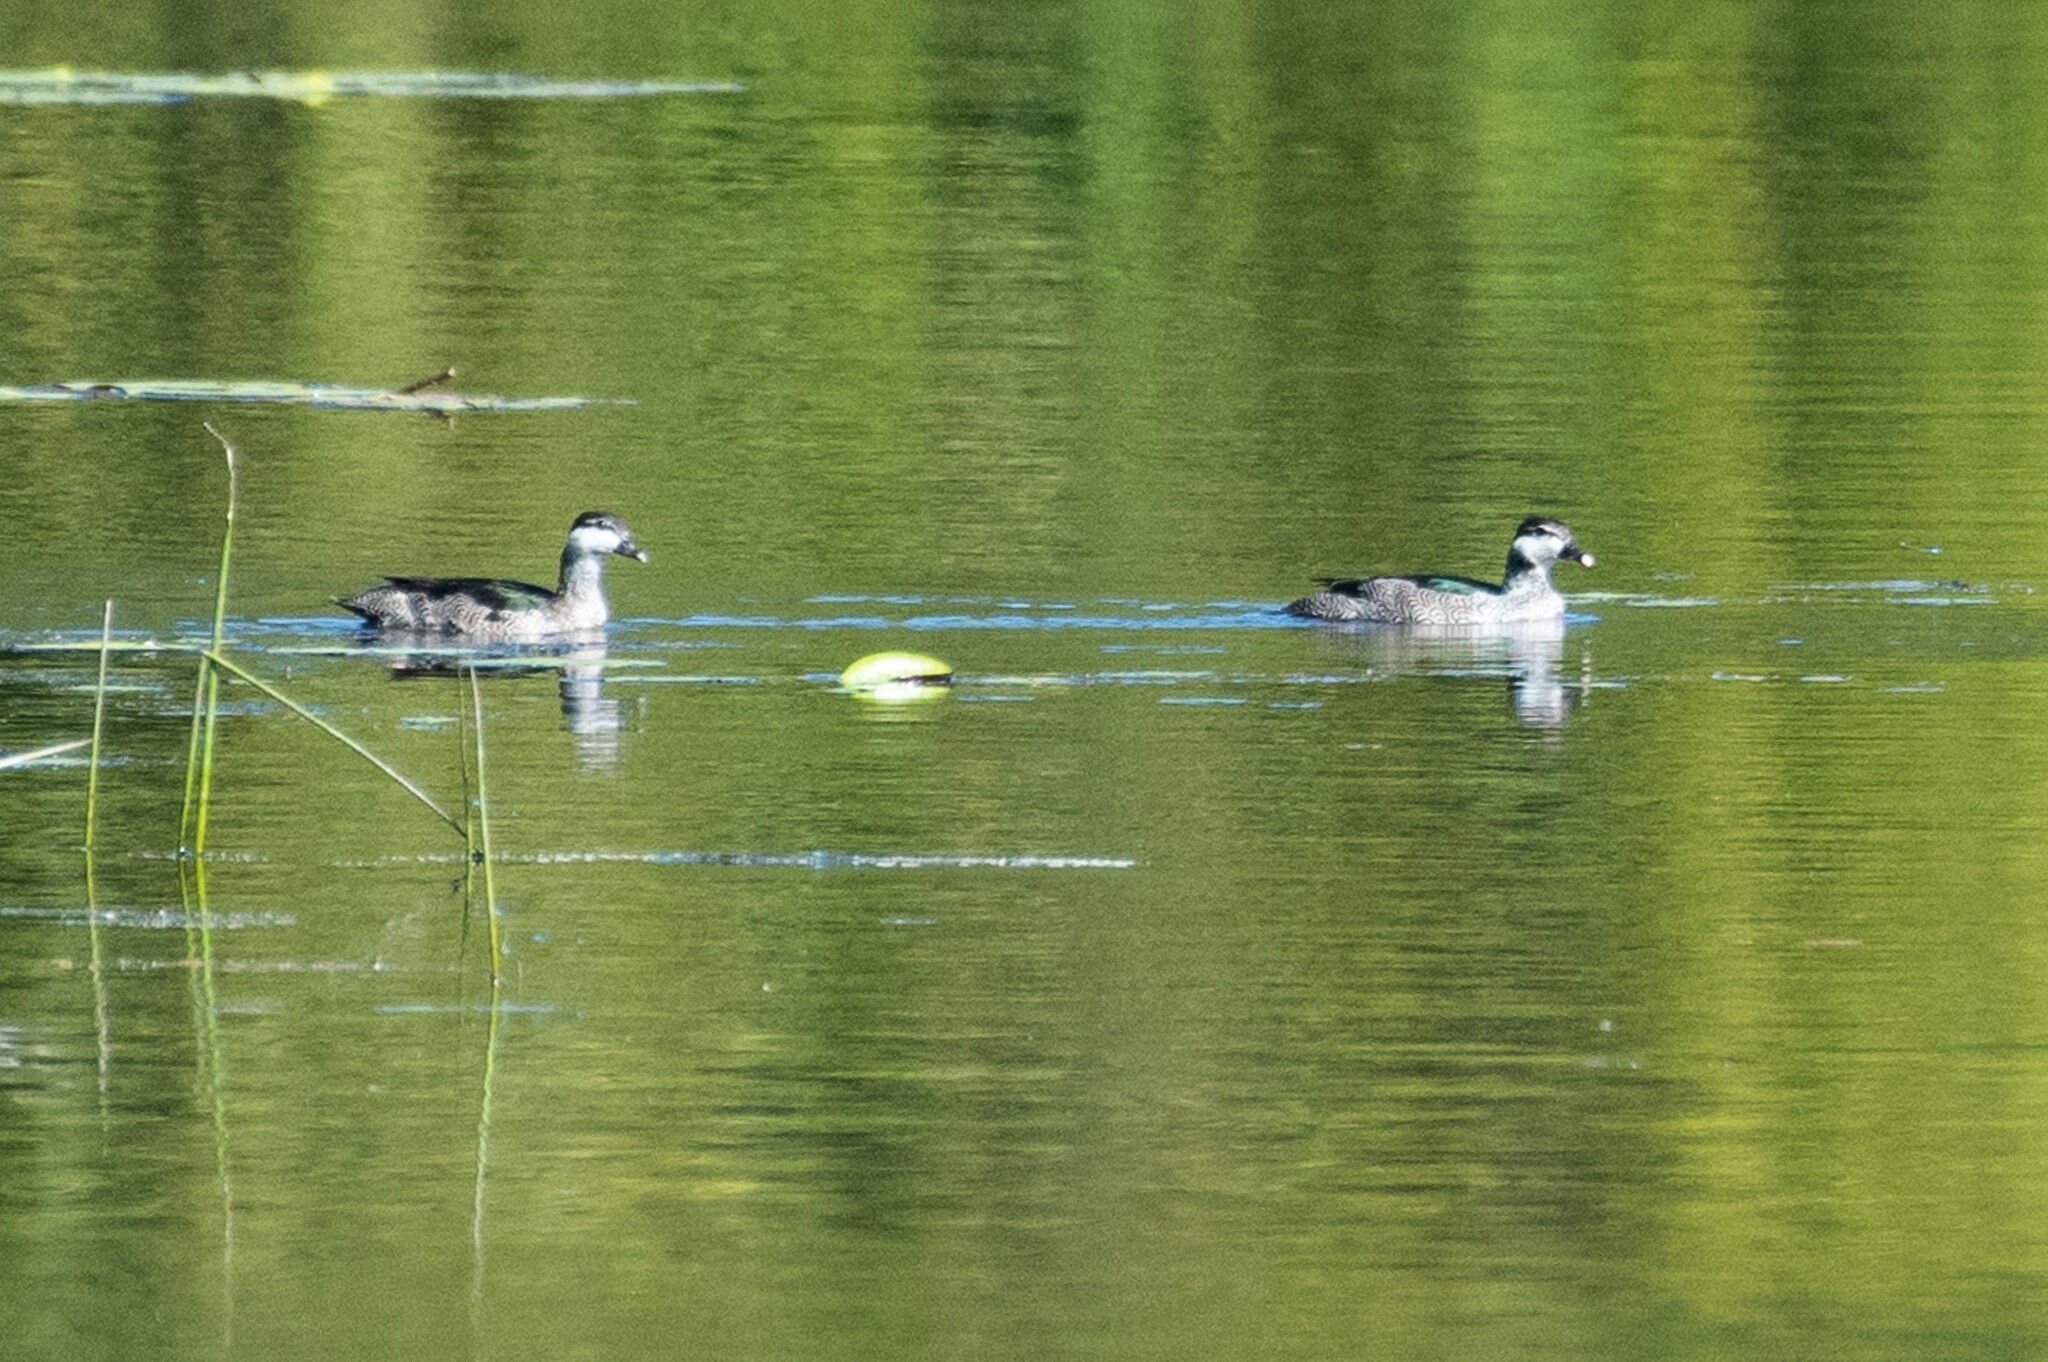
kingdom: Animalia
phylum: Chordata
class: Aves
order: Anseriformes
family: Anatidae
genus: Nettapus
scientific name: Nettapus pulchellus
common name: Green pygmy-goose
